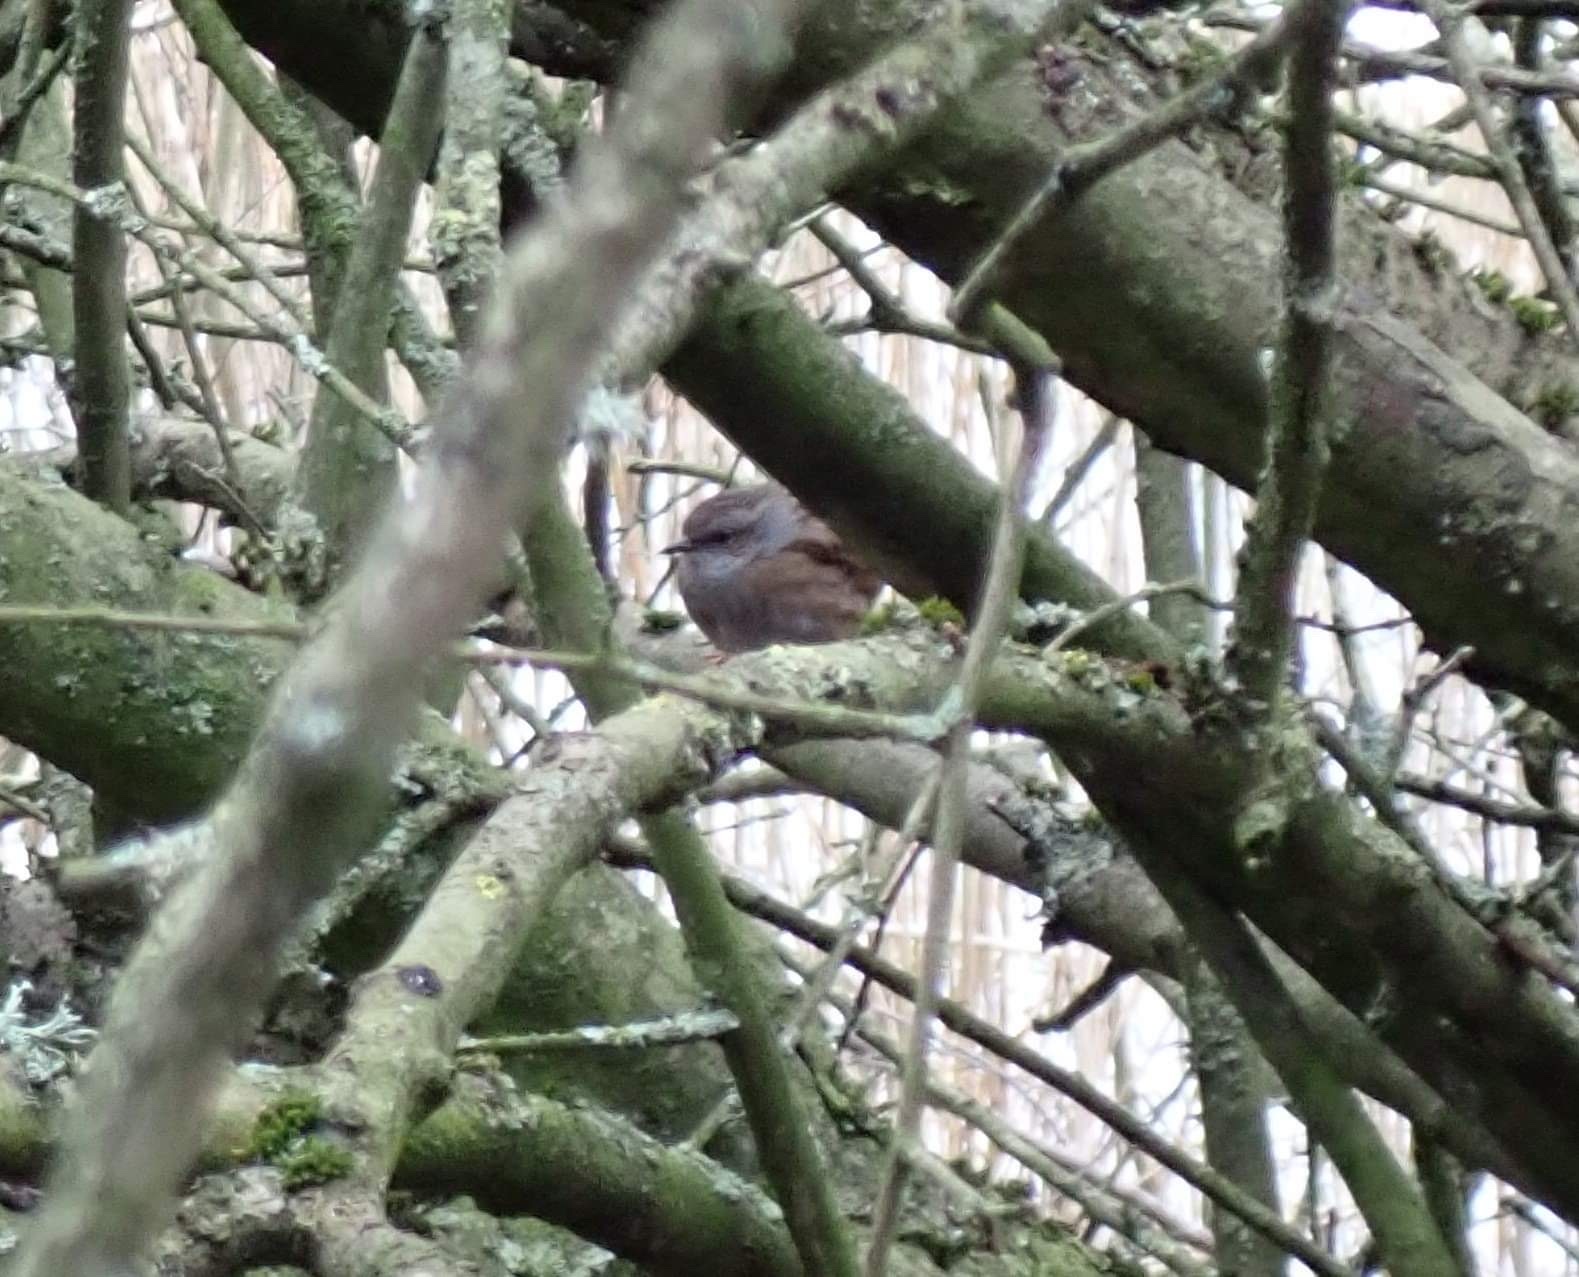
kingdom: Animalia
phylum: Chordata
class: Aves
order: Passeriformes
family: Prunellidae
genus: Prunella
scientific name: Prunella modularis
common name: Dunnock
